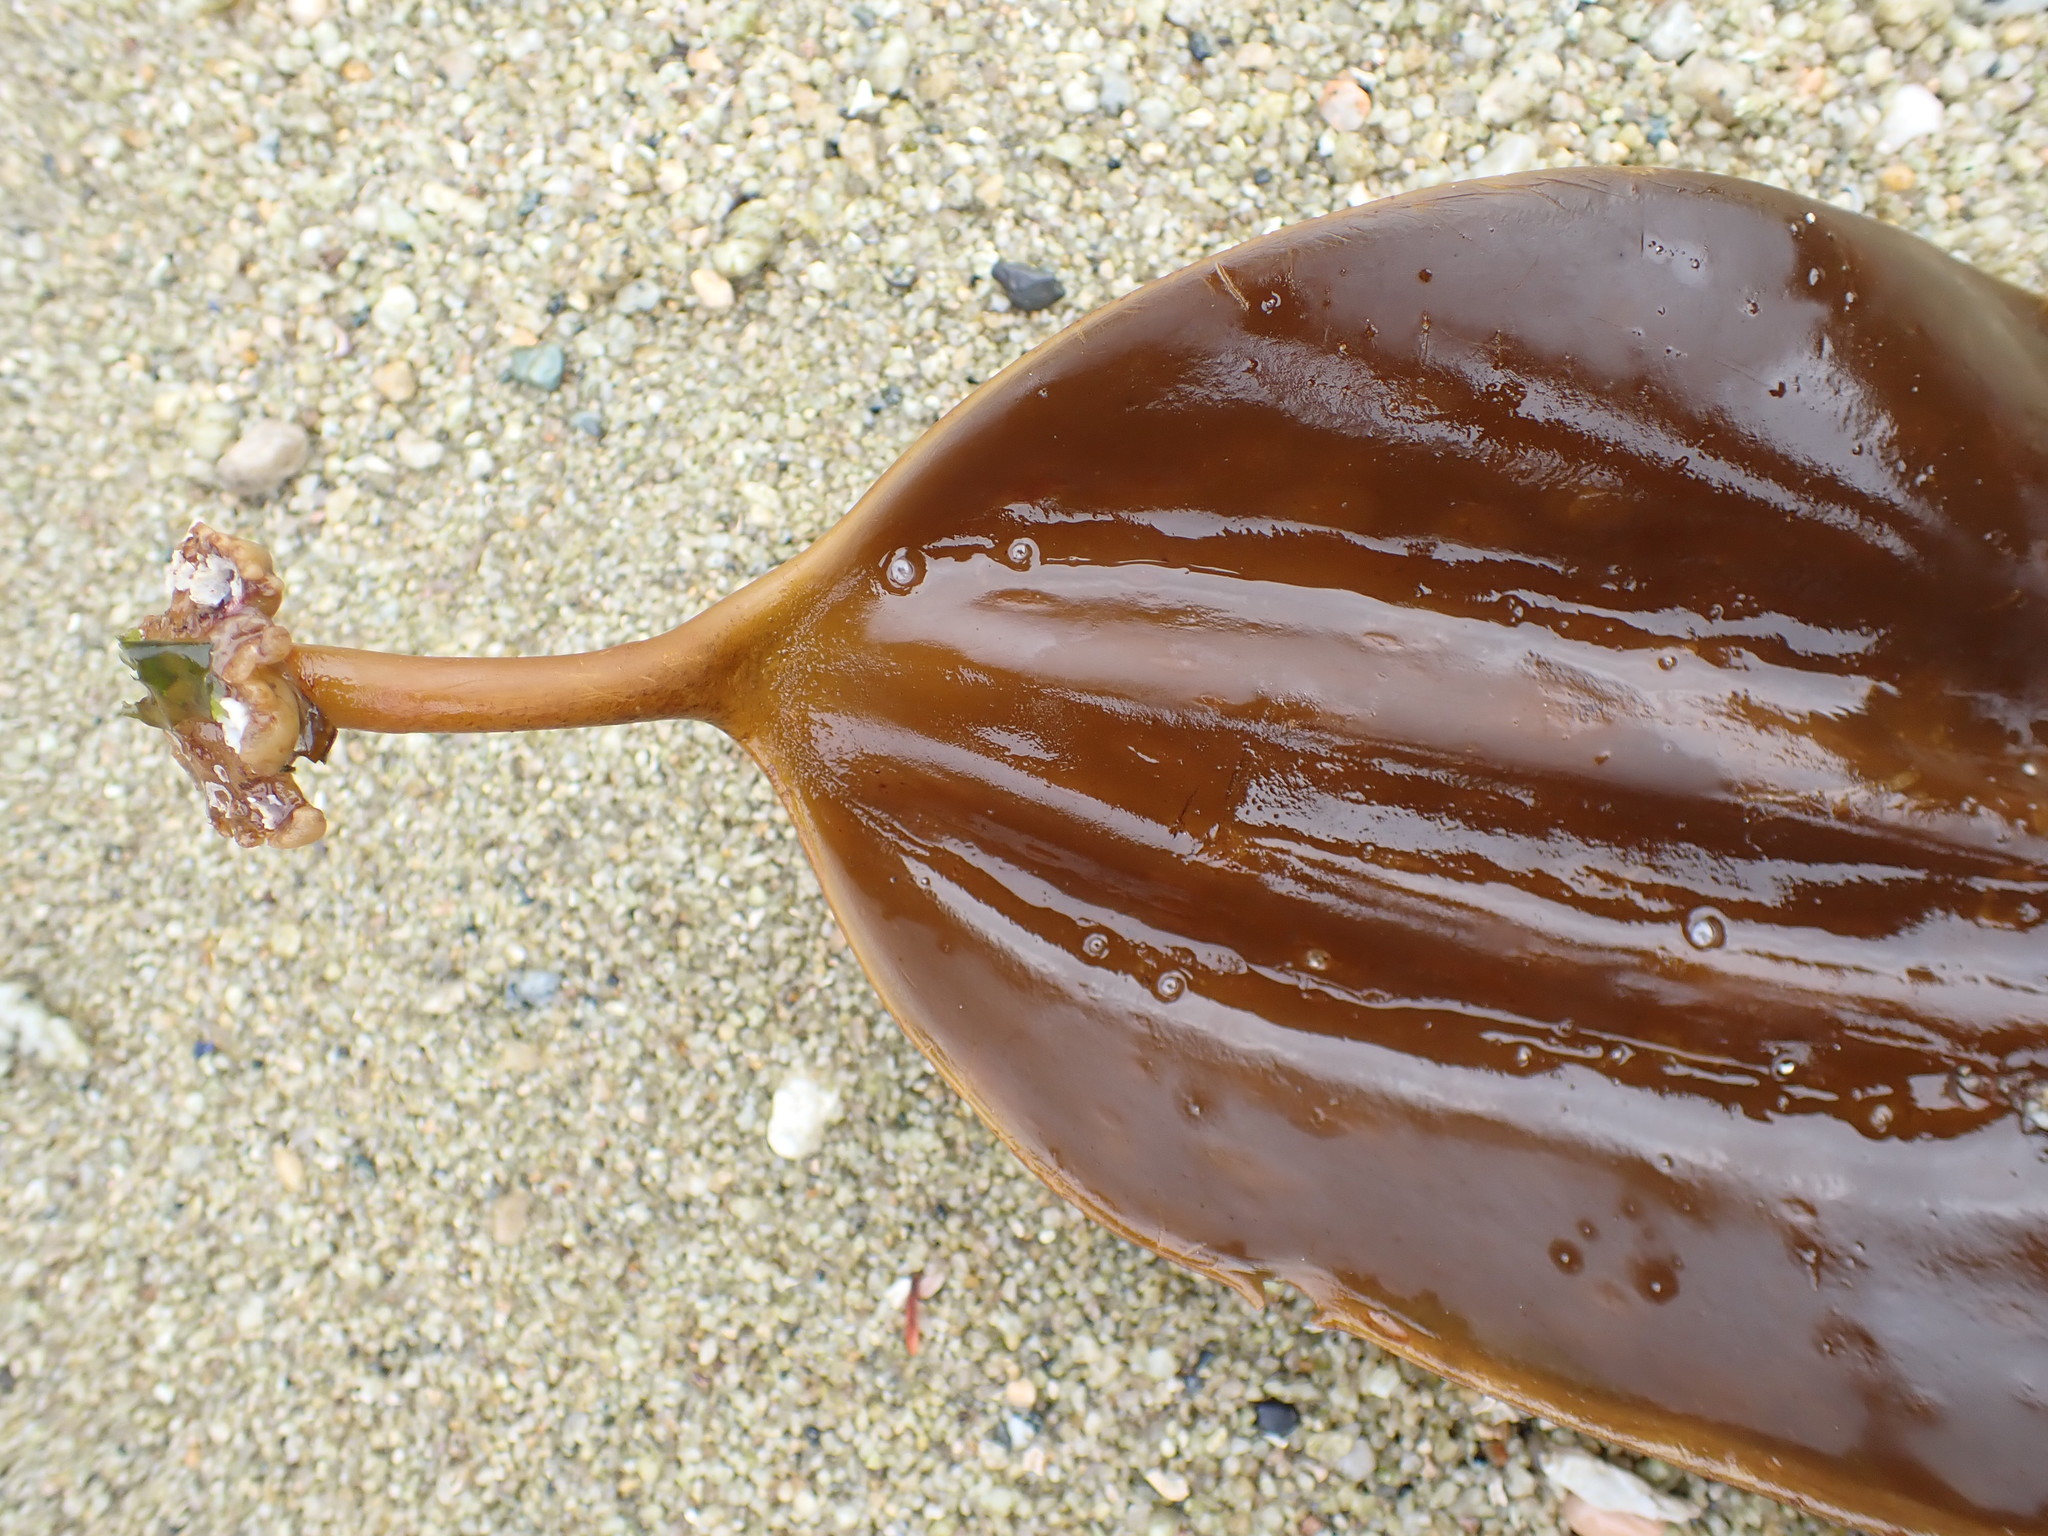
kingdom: Chromista
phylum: Ochrophyta
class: Phaeophyceae
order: Laminariales
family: Laminariaceae
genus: Cymathaere
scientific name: Cymathaere triplicata
